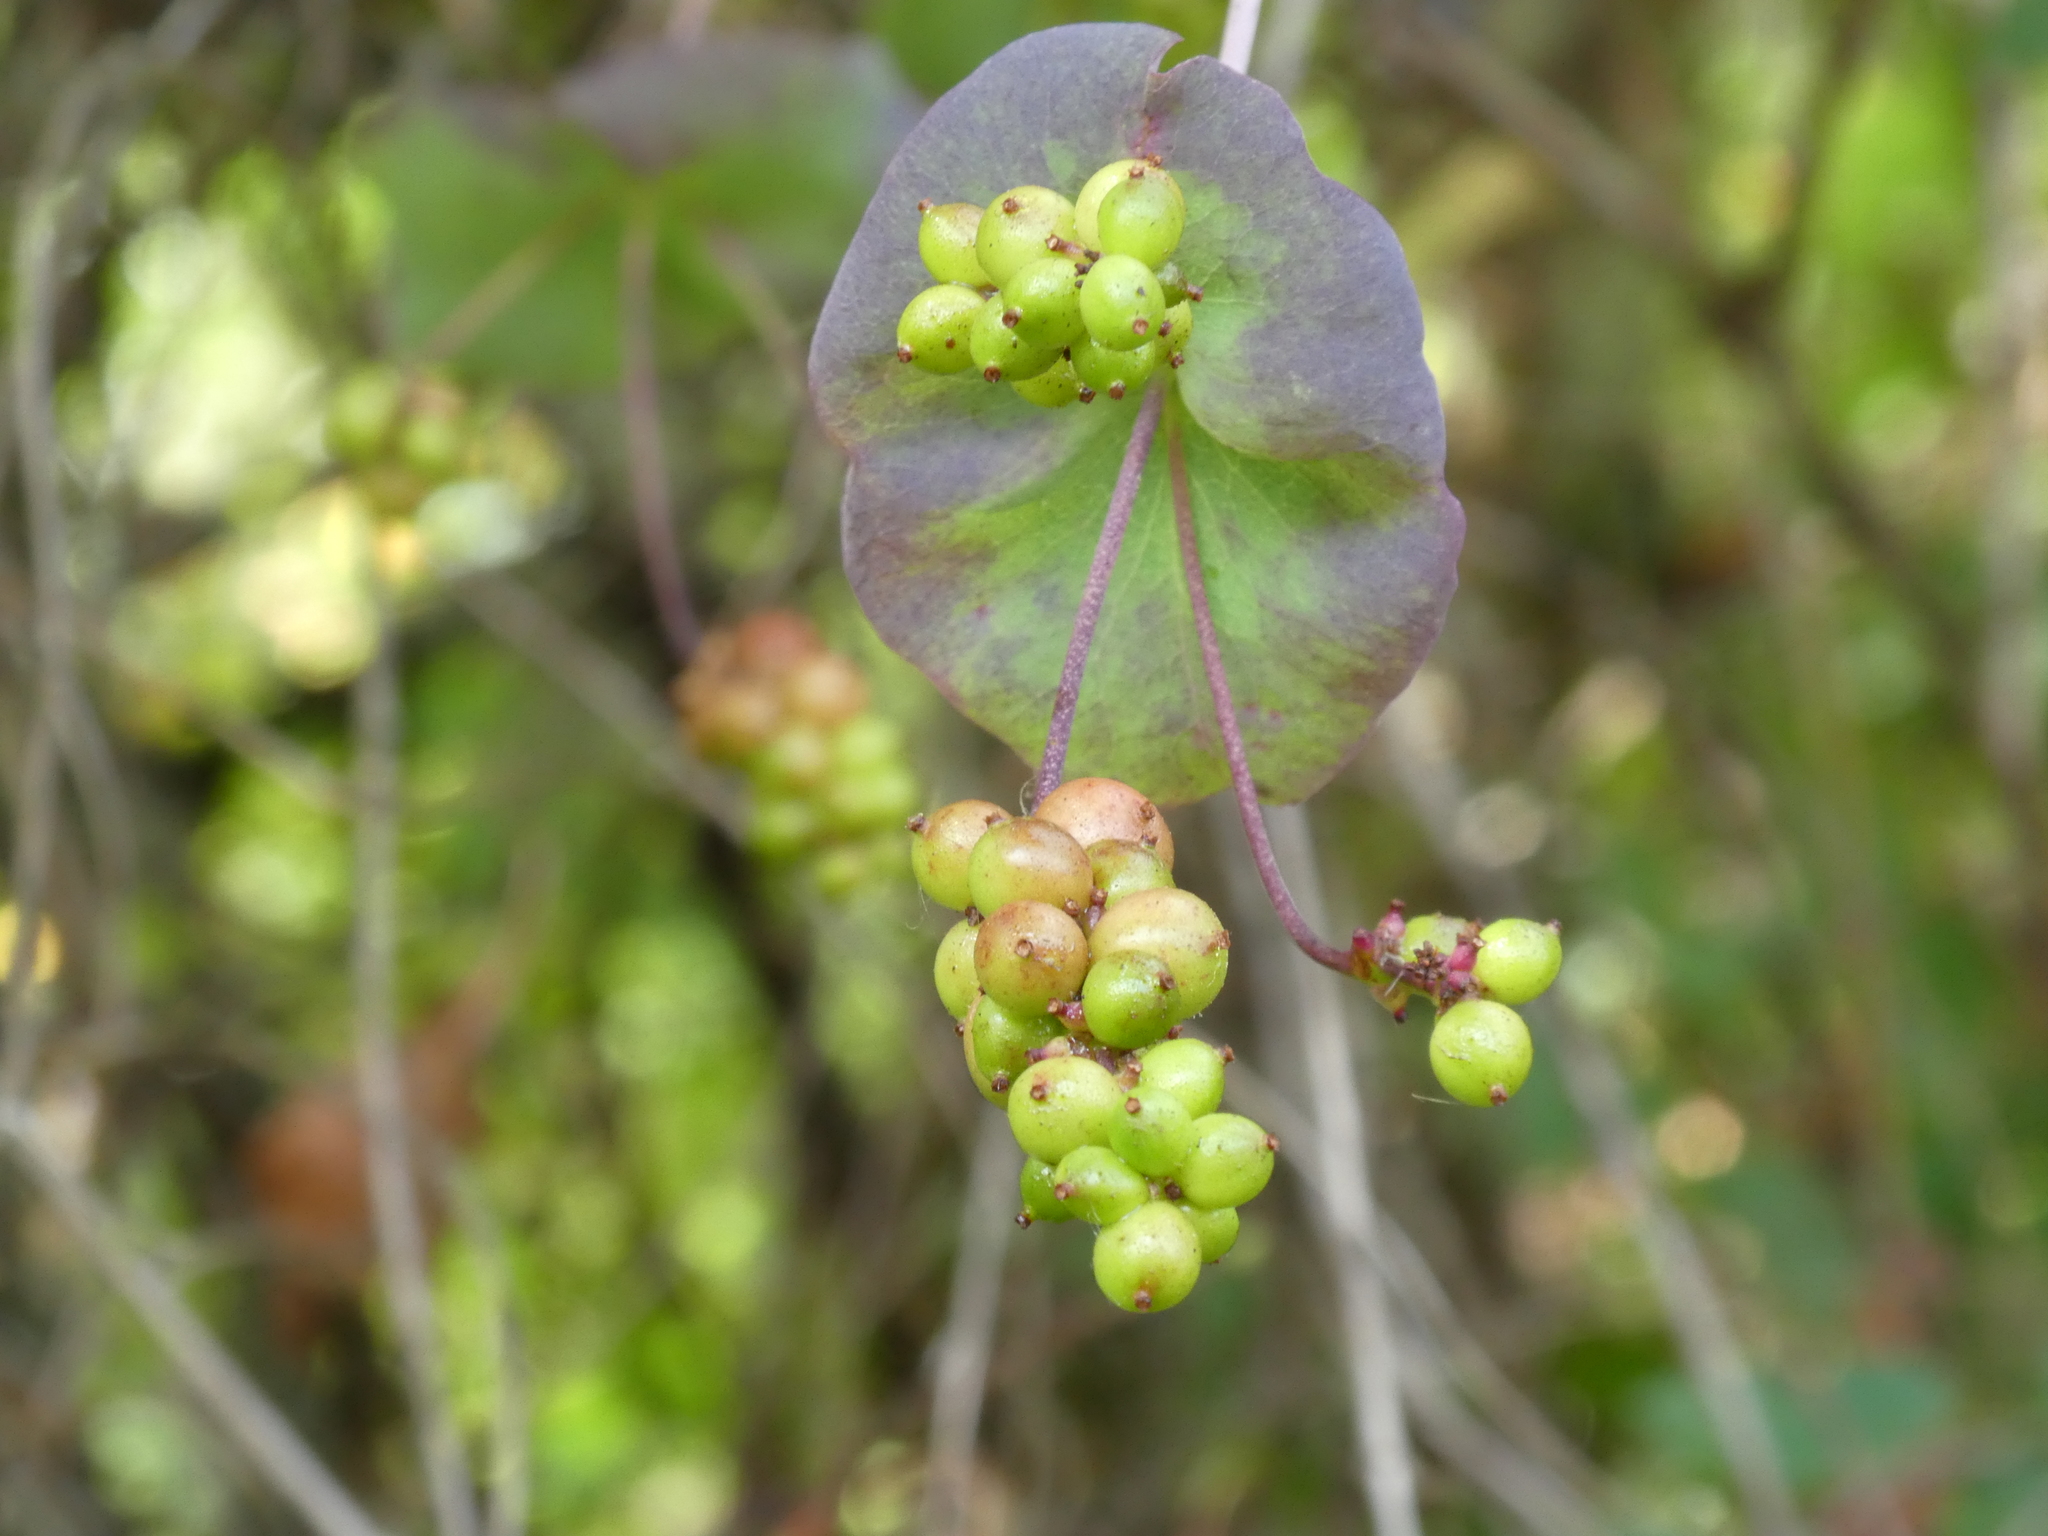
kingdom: Plantae
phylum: Tracheophyta
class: Magnoliopsida
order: Dipsacales
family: Caprifoliaceae
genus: Lonicera
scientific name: Lonicera ciliosa
